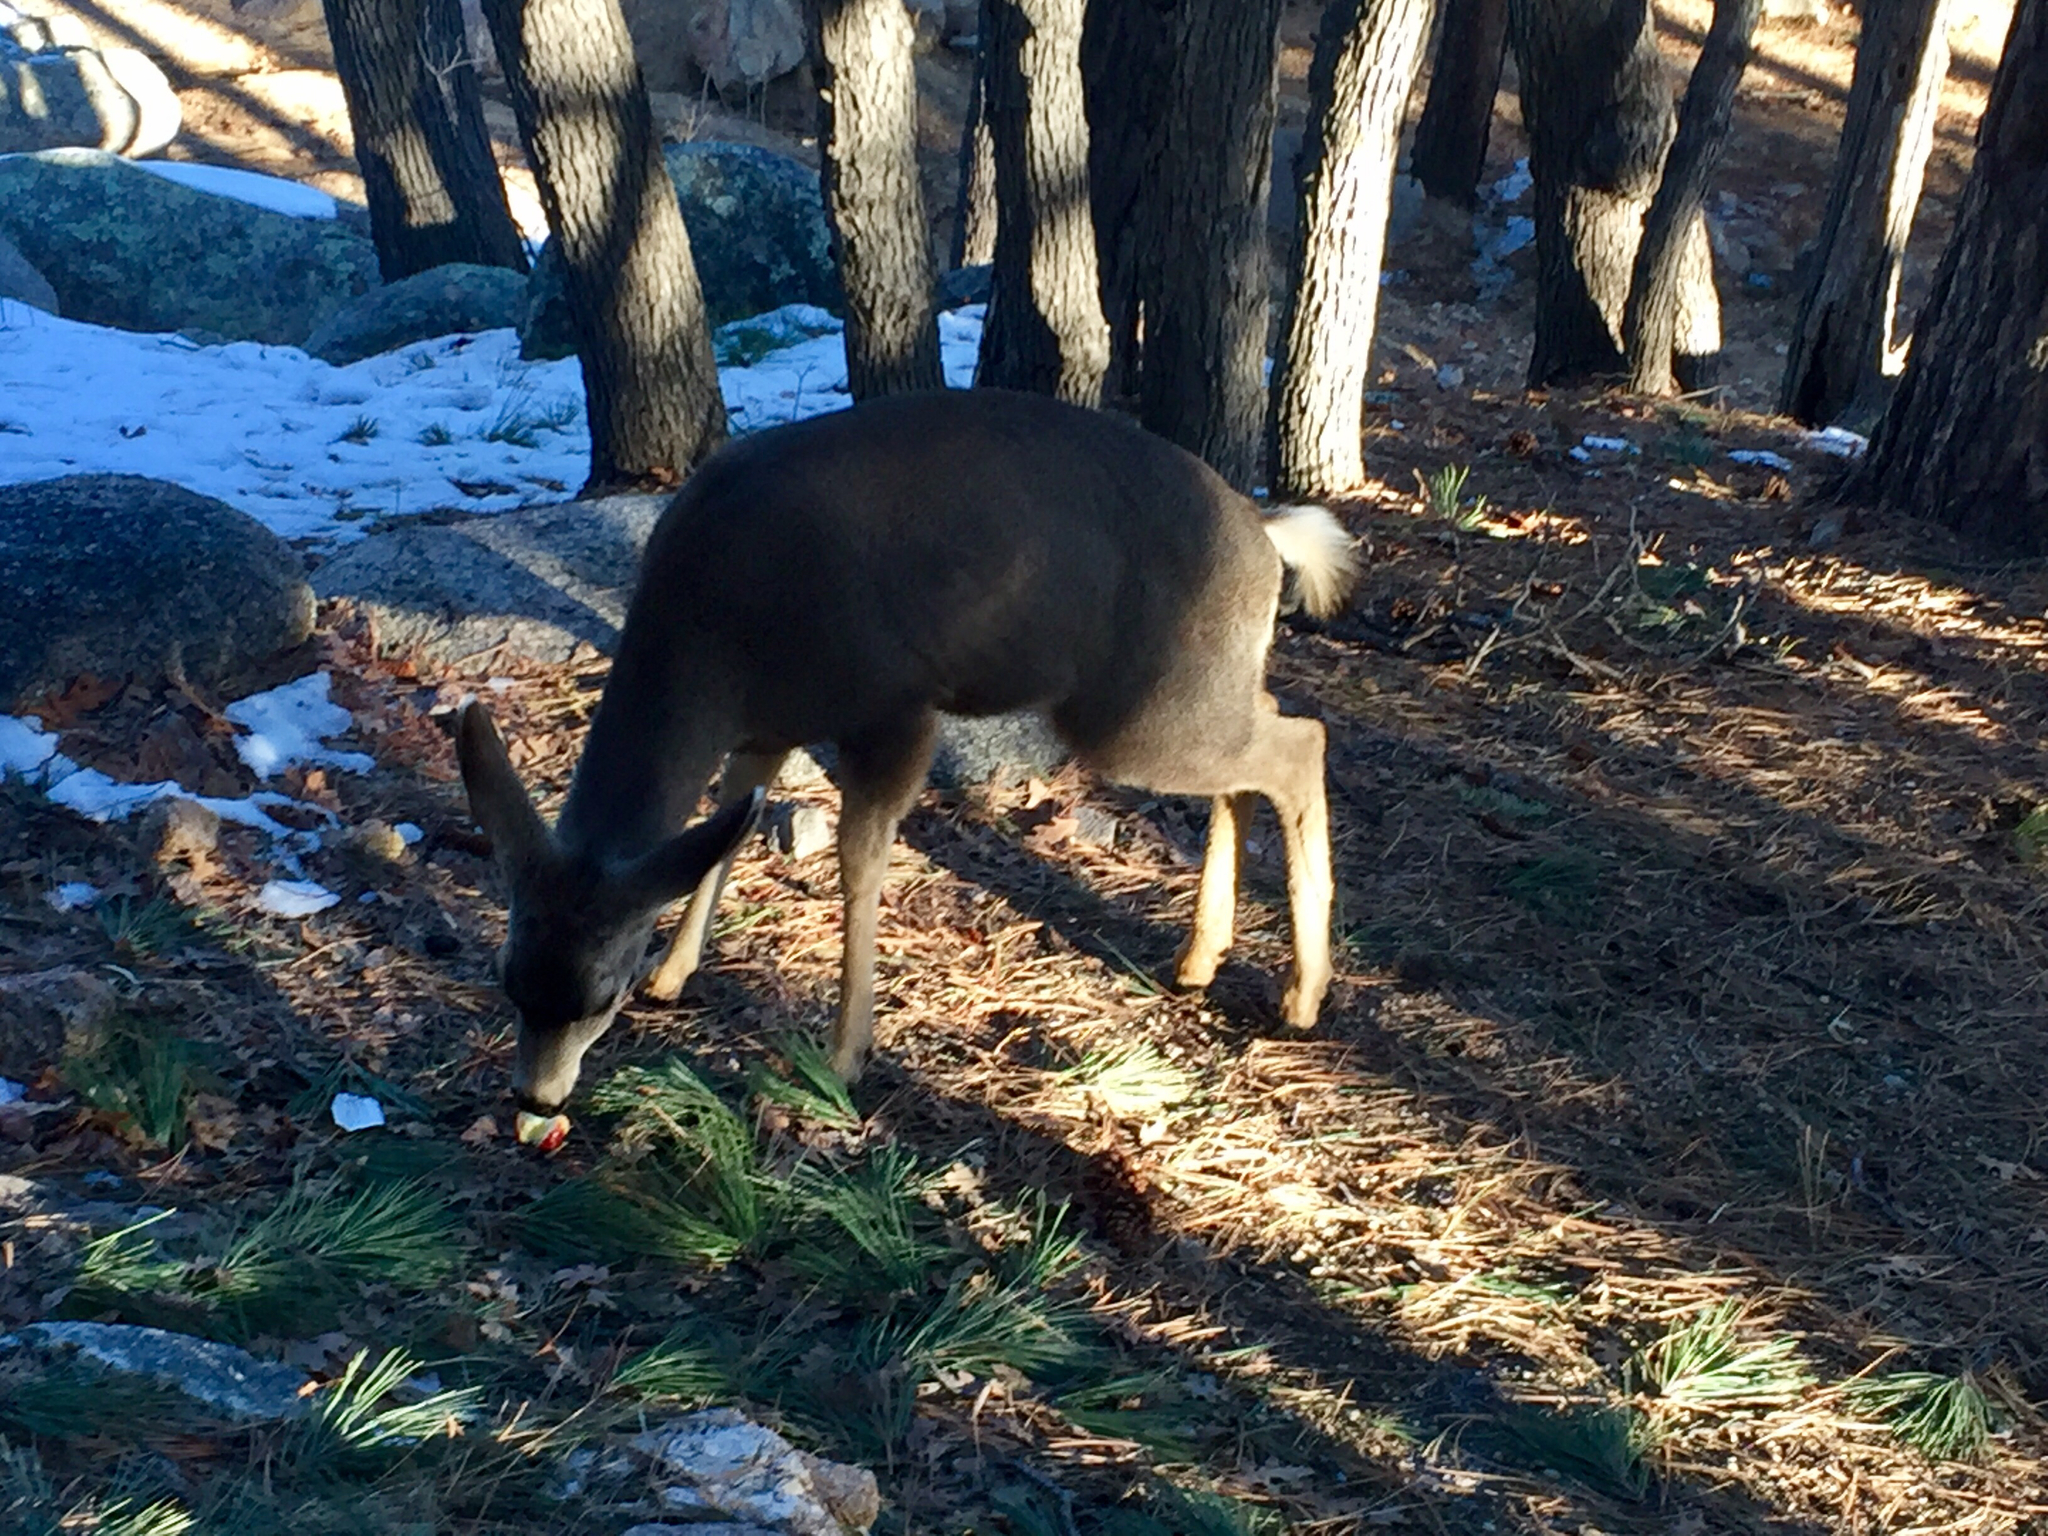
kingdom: Animalia
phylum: Chordata
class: Mammalia
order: Artiodactyla
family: Cervidae
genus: Odocoileus
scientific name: Odocoileus hemionus
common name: Mule deer
